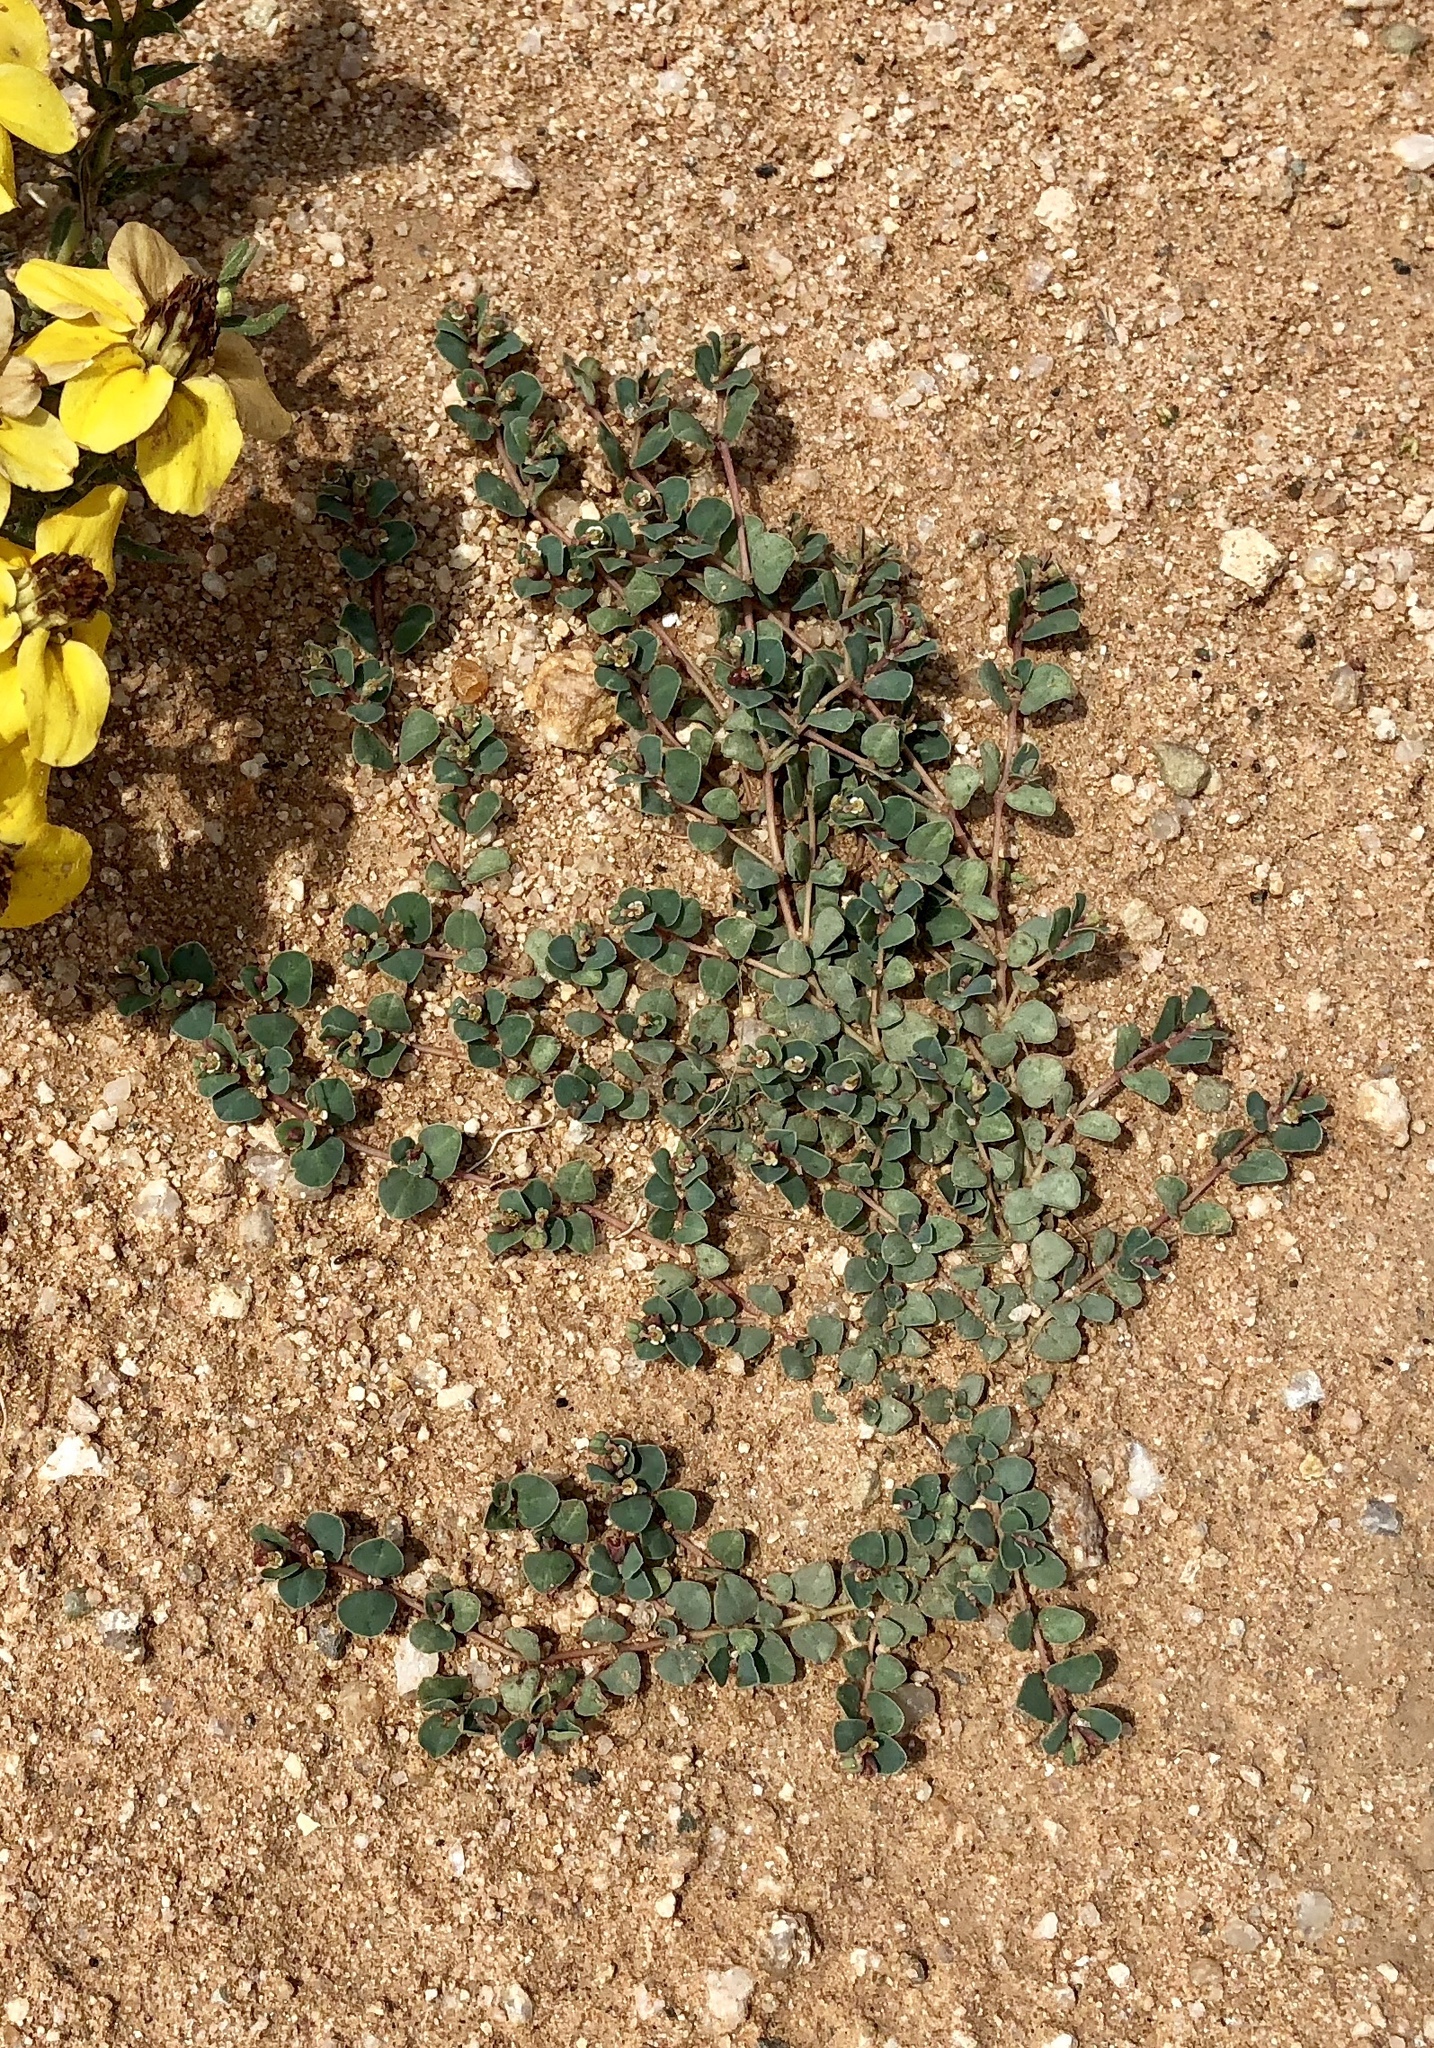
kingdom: Plantae
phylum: Tracheophyta
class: Magnoliopsida
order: Malpighiales
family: Euphorbiaceae
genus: Euphorbia
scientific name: Euphorbia albomarginata
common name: Whitemargin sandmat
